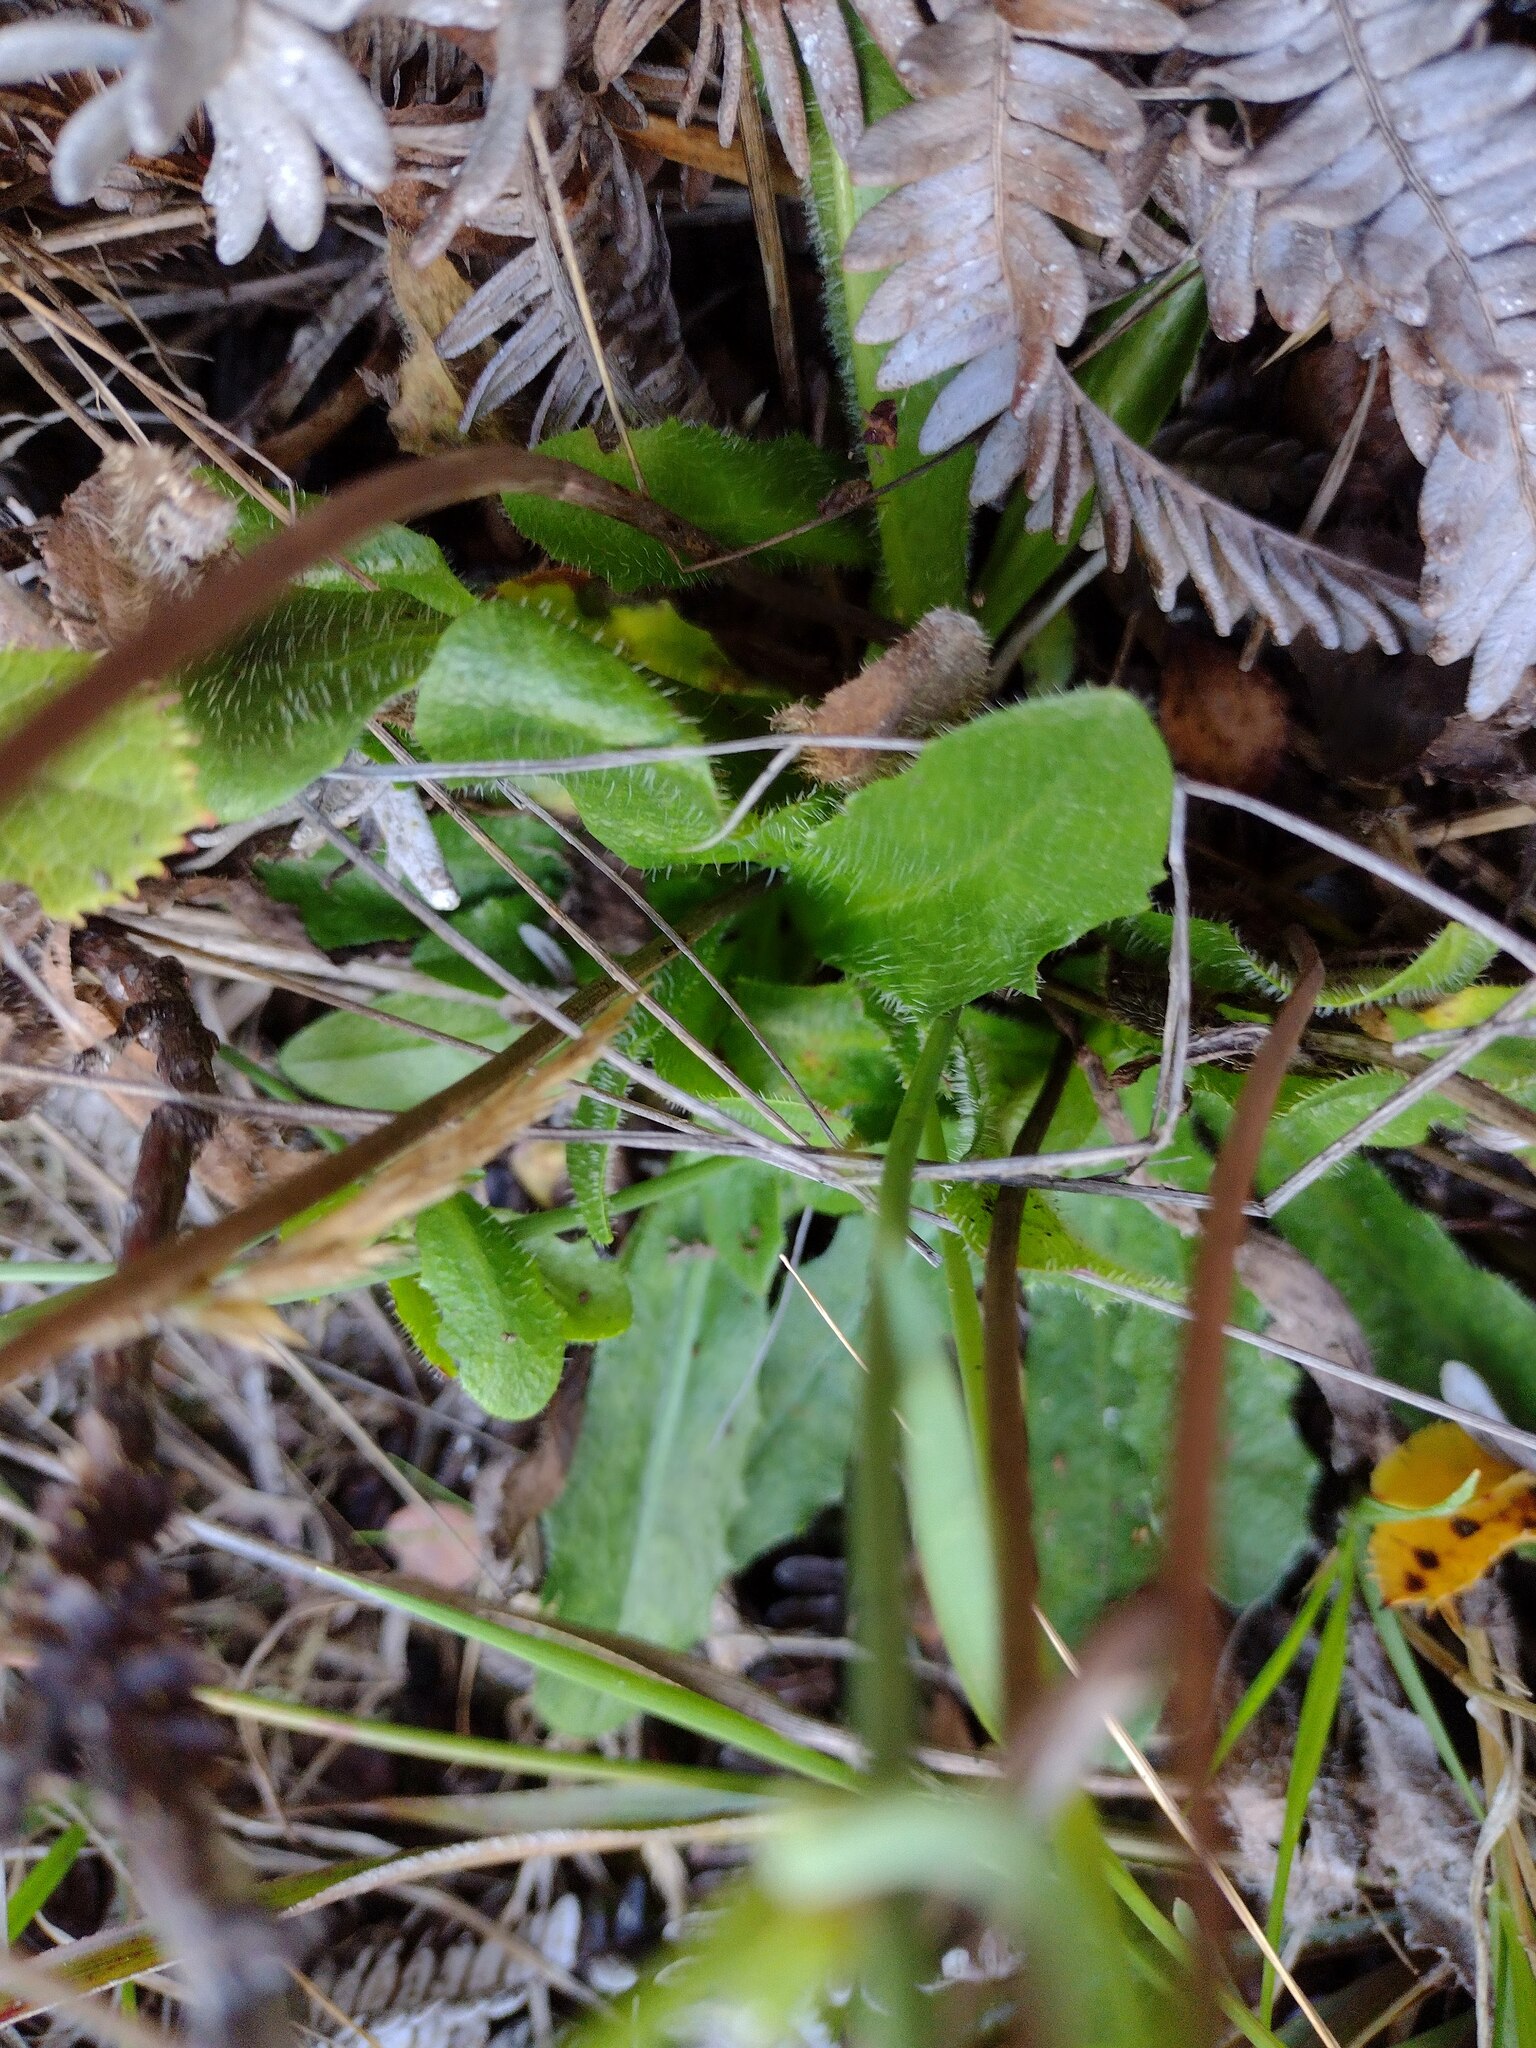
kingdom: Plantae
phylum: Tracheophyta
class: Magnoliopsida
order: Asterales
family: Asteraceae
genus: Hypochaeris
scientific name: Hypochaeris radicata
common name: Flatweed
